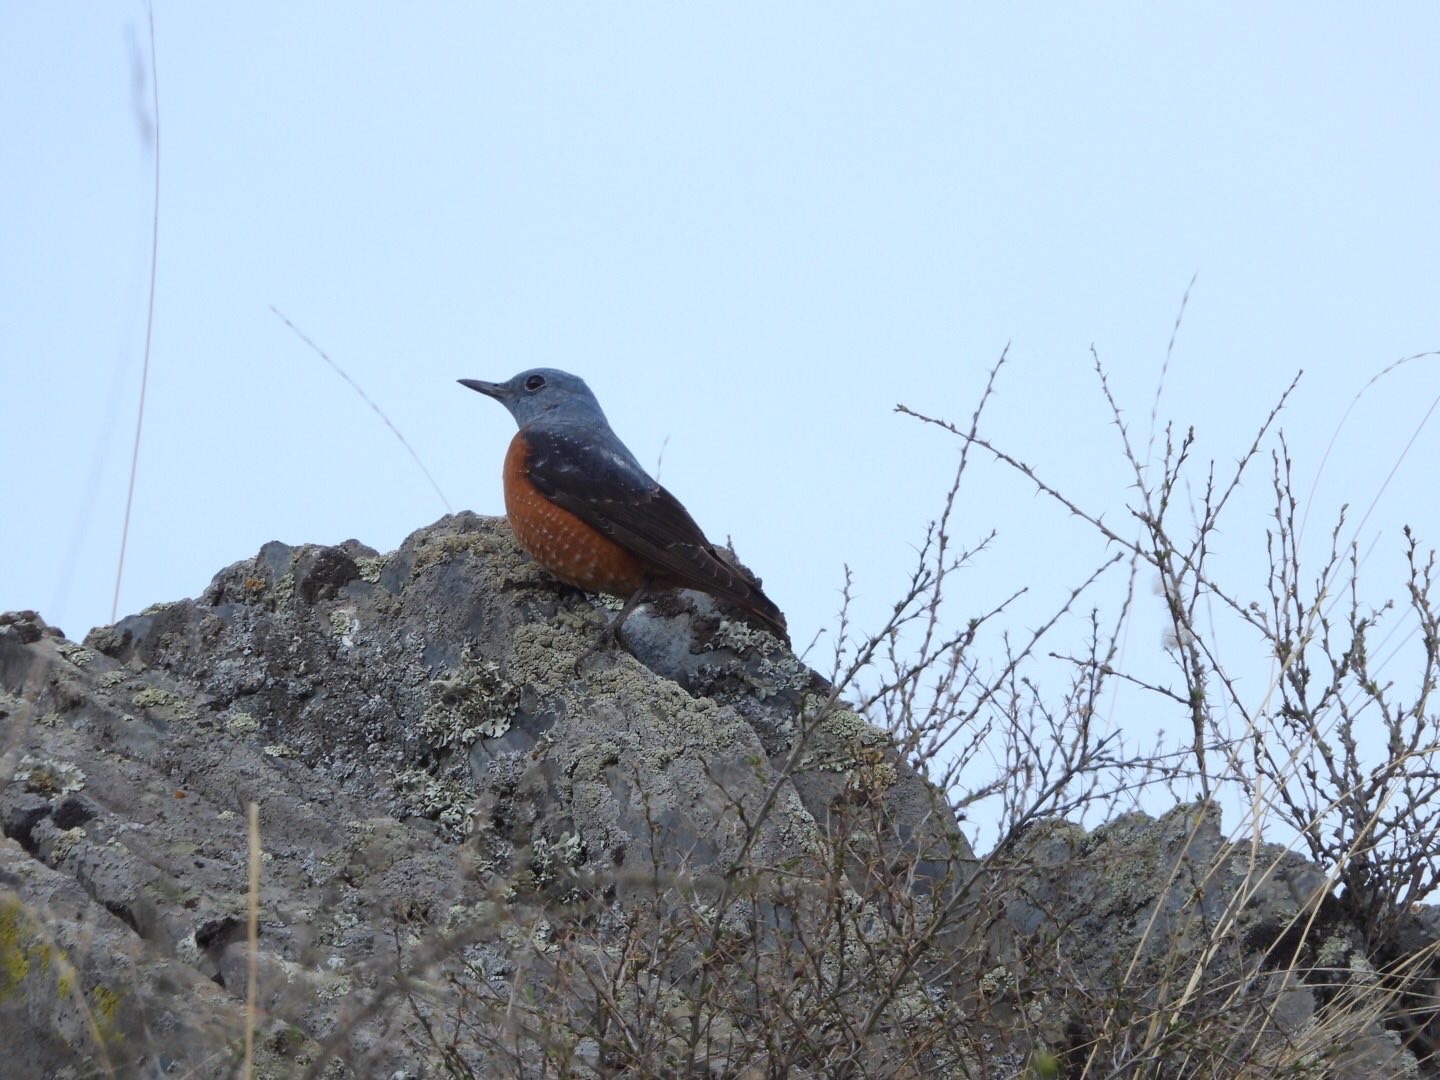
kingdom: Animalia
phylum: Chordata
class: Aves
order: Passeriformes
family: Muscicapidae
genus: Monticola
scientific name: Monticola saxatilis
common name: Rufous-tailed rock thrush
